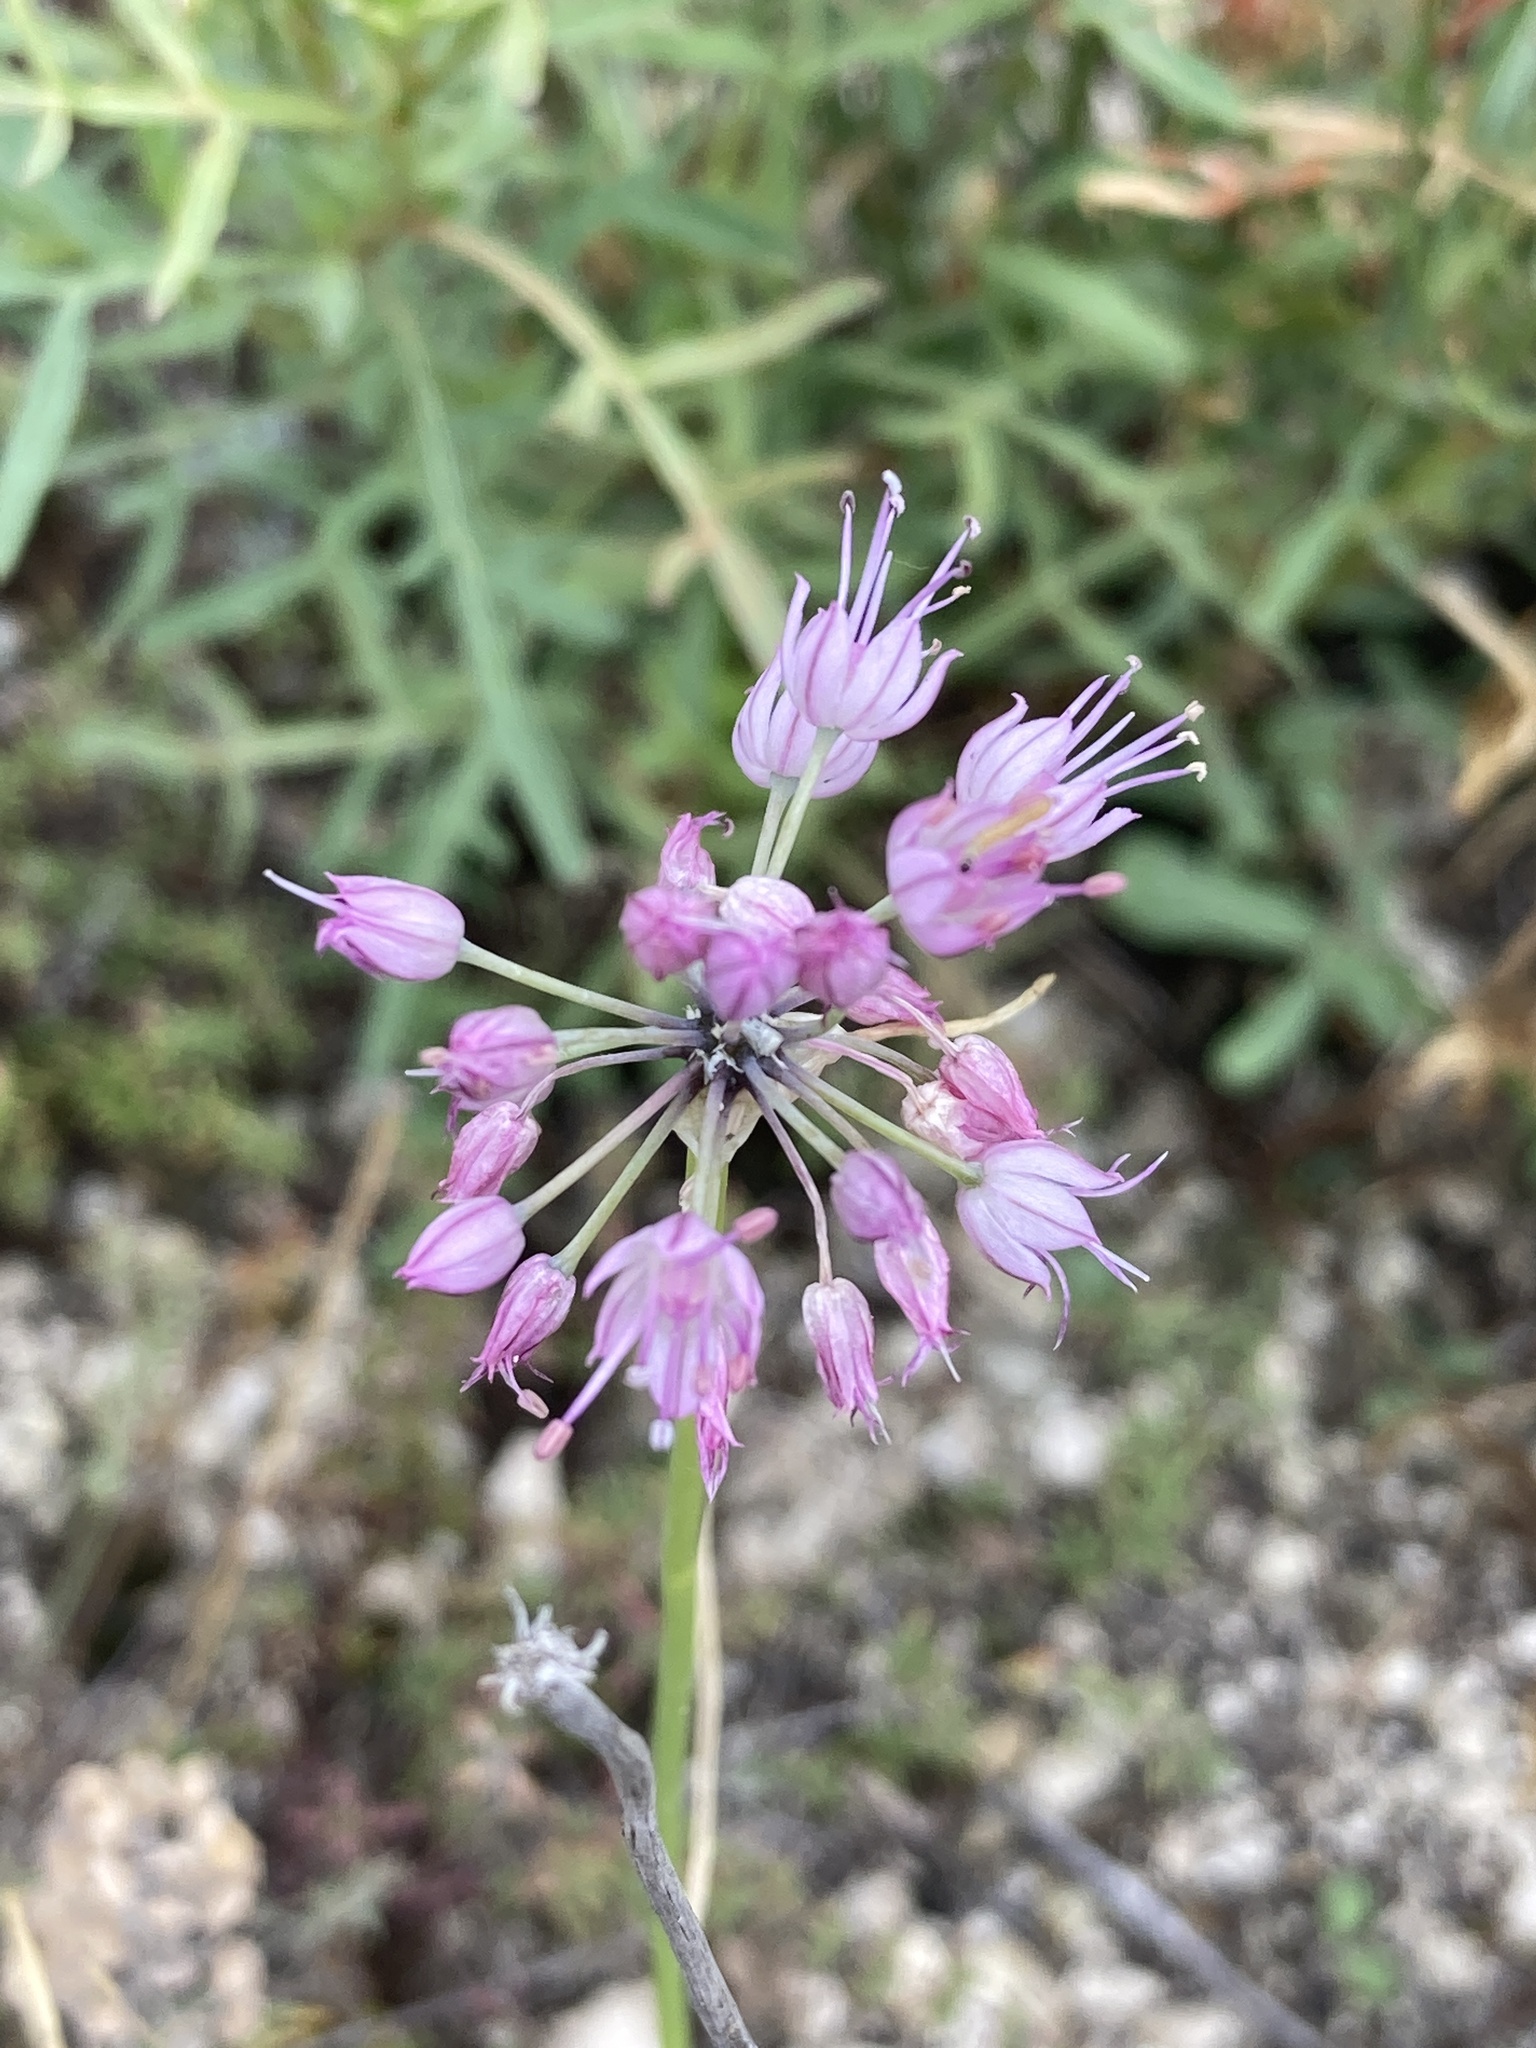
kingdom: Plantae
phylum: Tracheophyta
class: Liliopsida
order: Asparagales
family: Amaryllidaceae
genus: Allium
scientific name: Allium cretaceum
